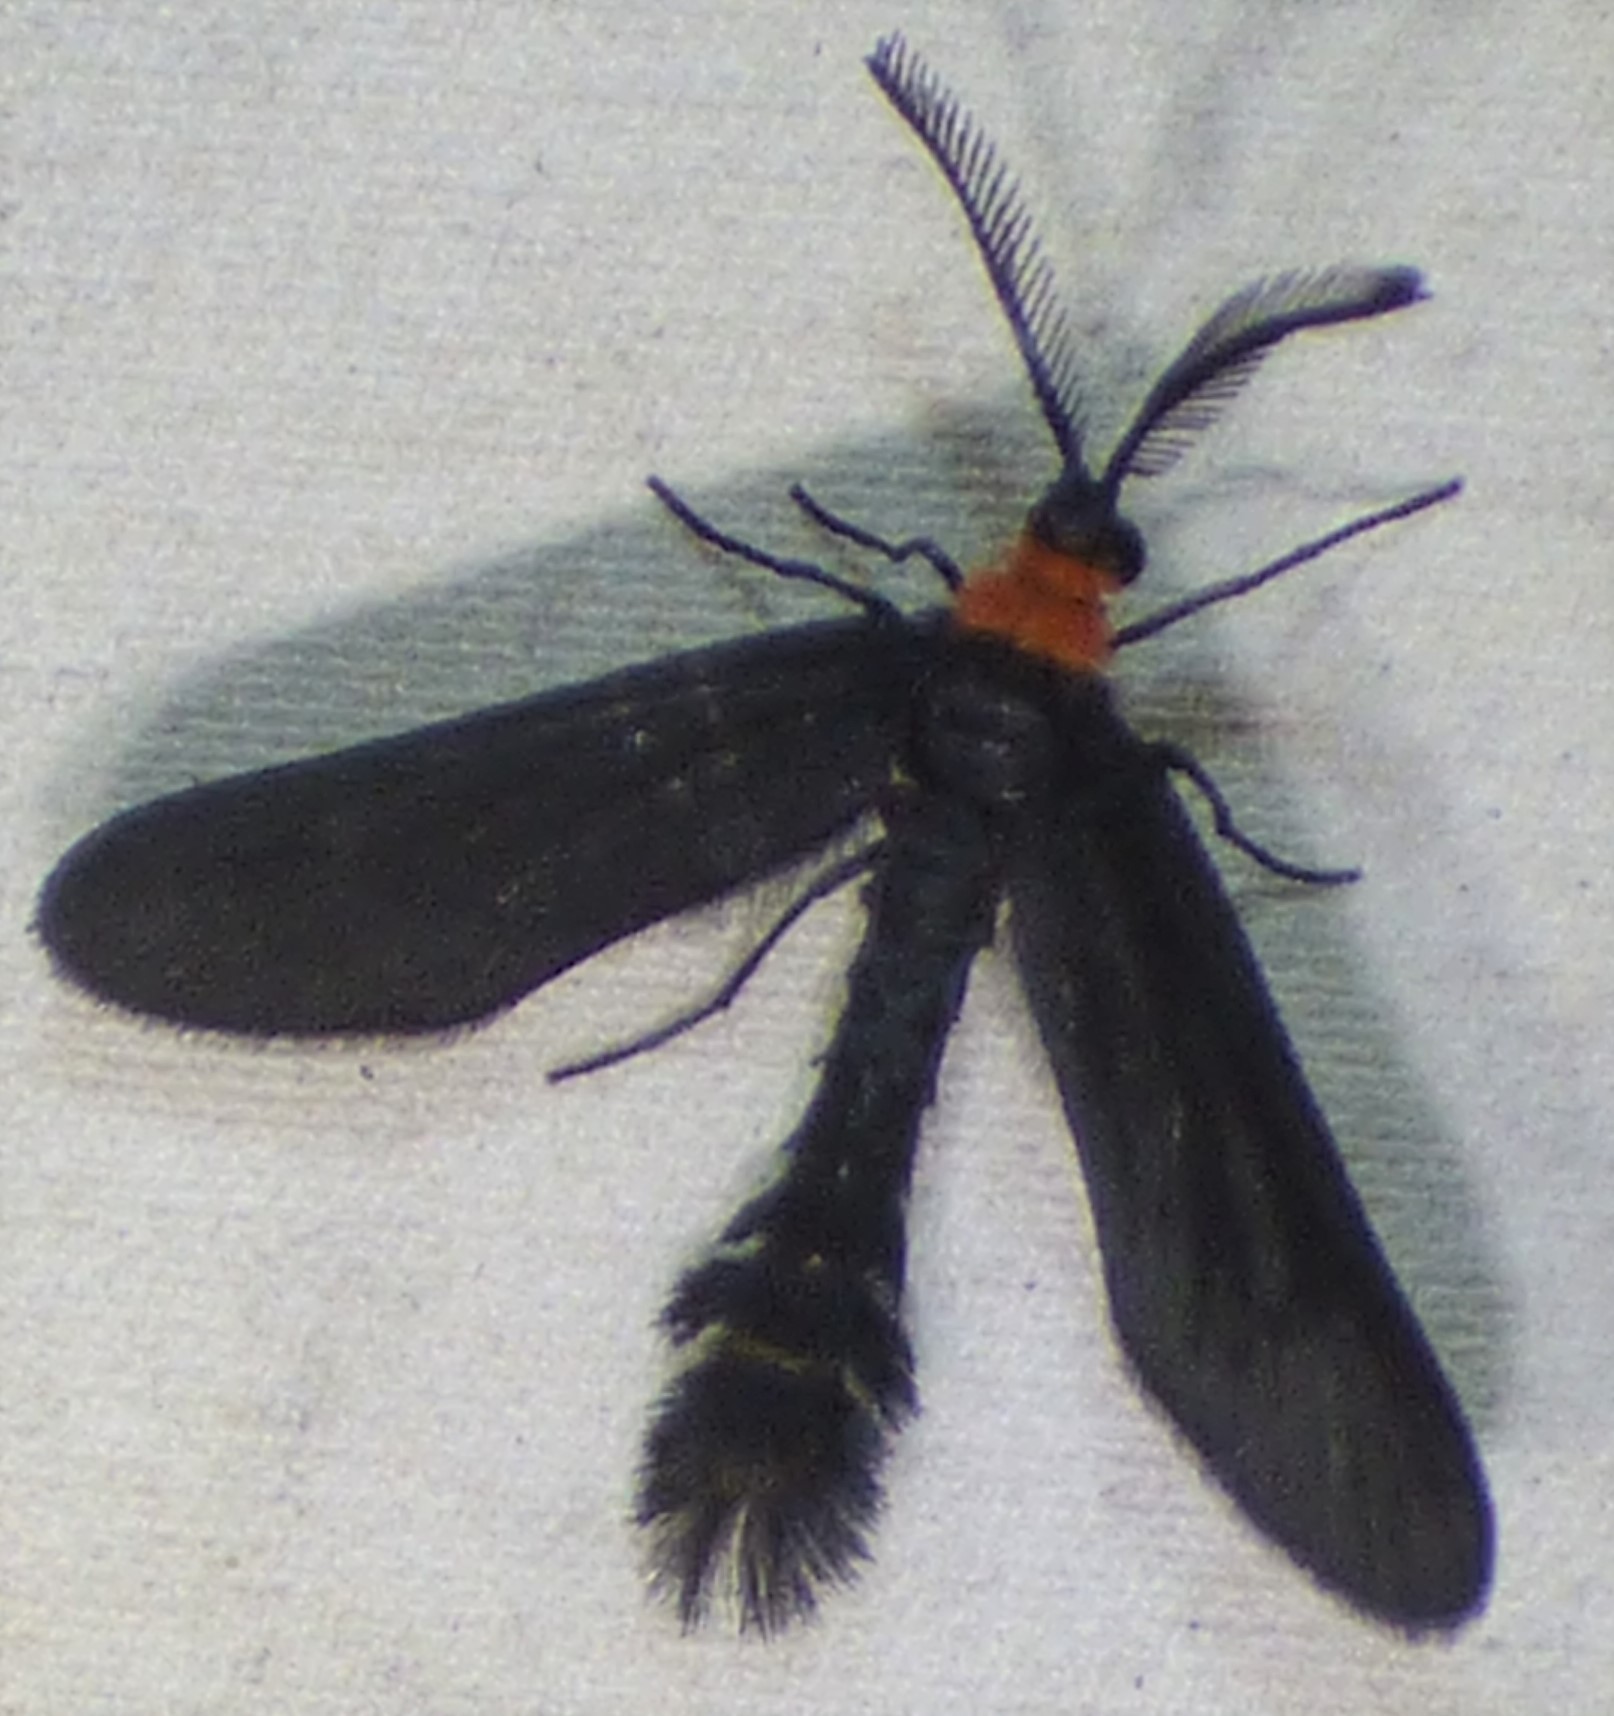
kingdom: Animalia
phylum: Arthropoda
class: Insecta
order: Lepidoptera
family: Zygaenidae
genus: Harrisina
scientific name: Harrisina americana
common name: Grapeleaf skeletonizer moth
